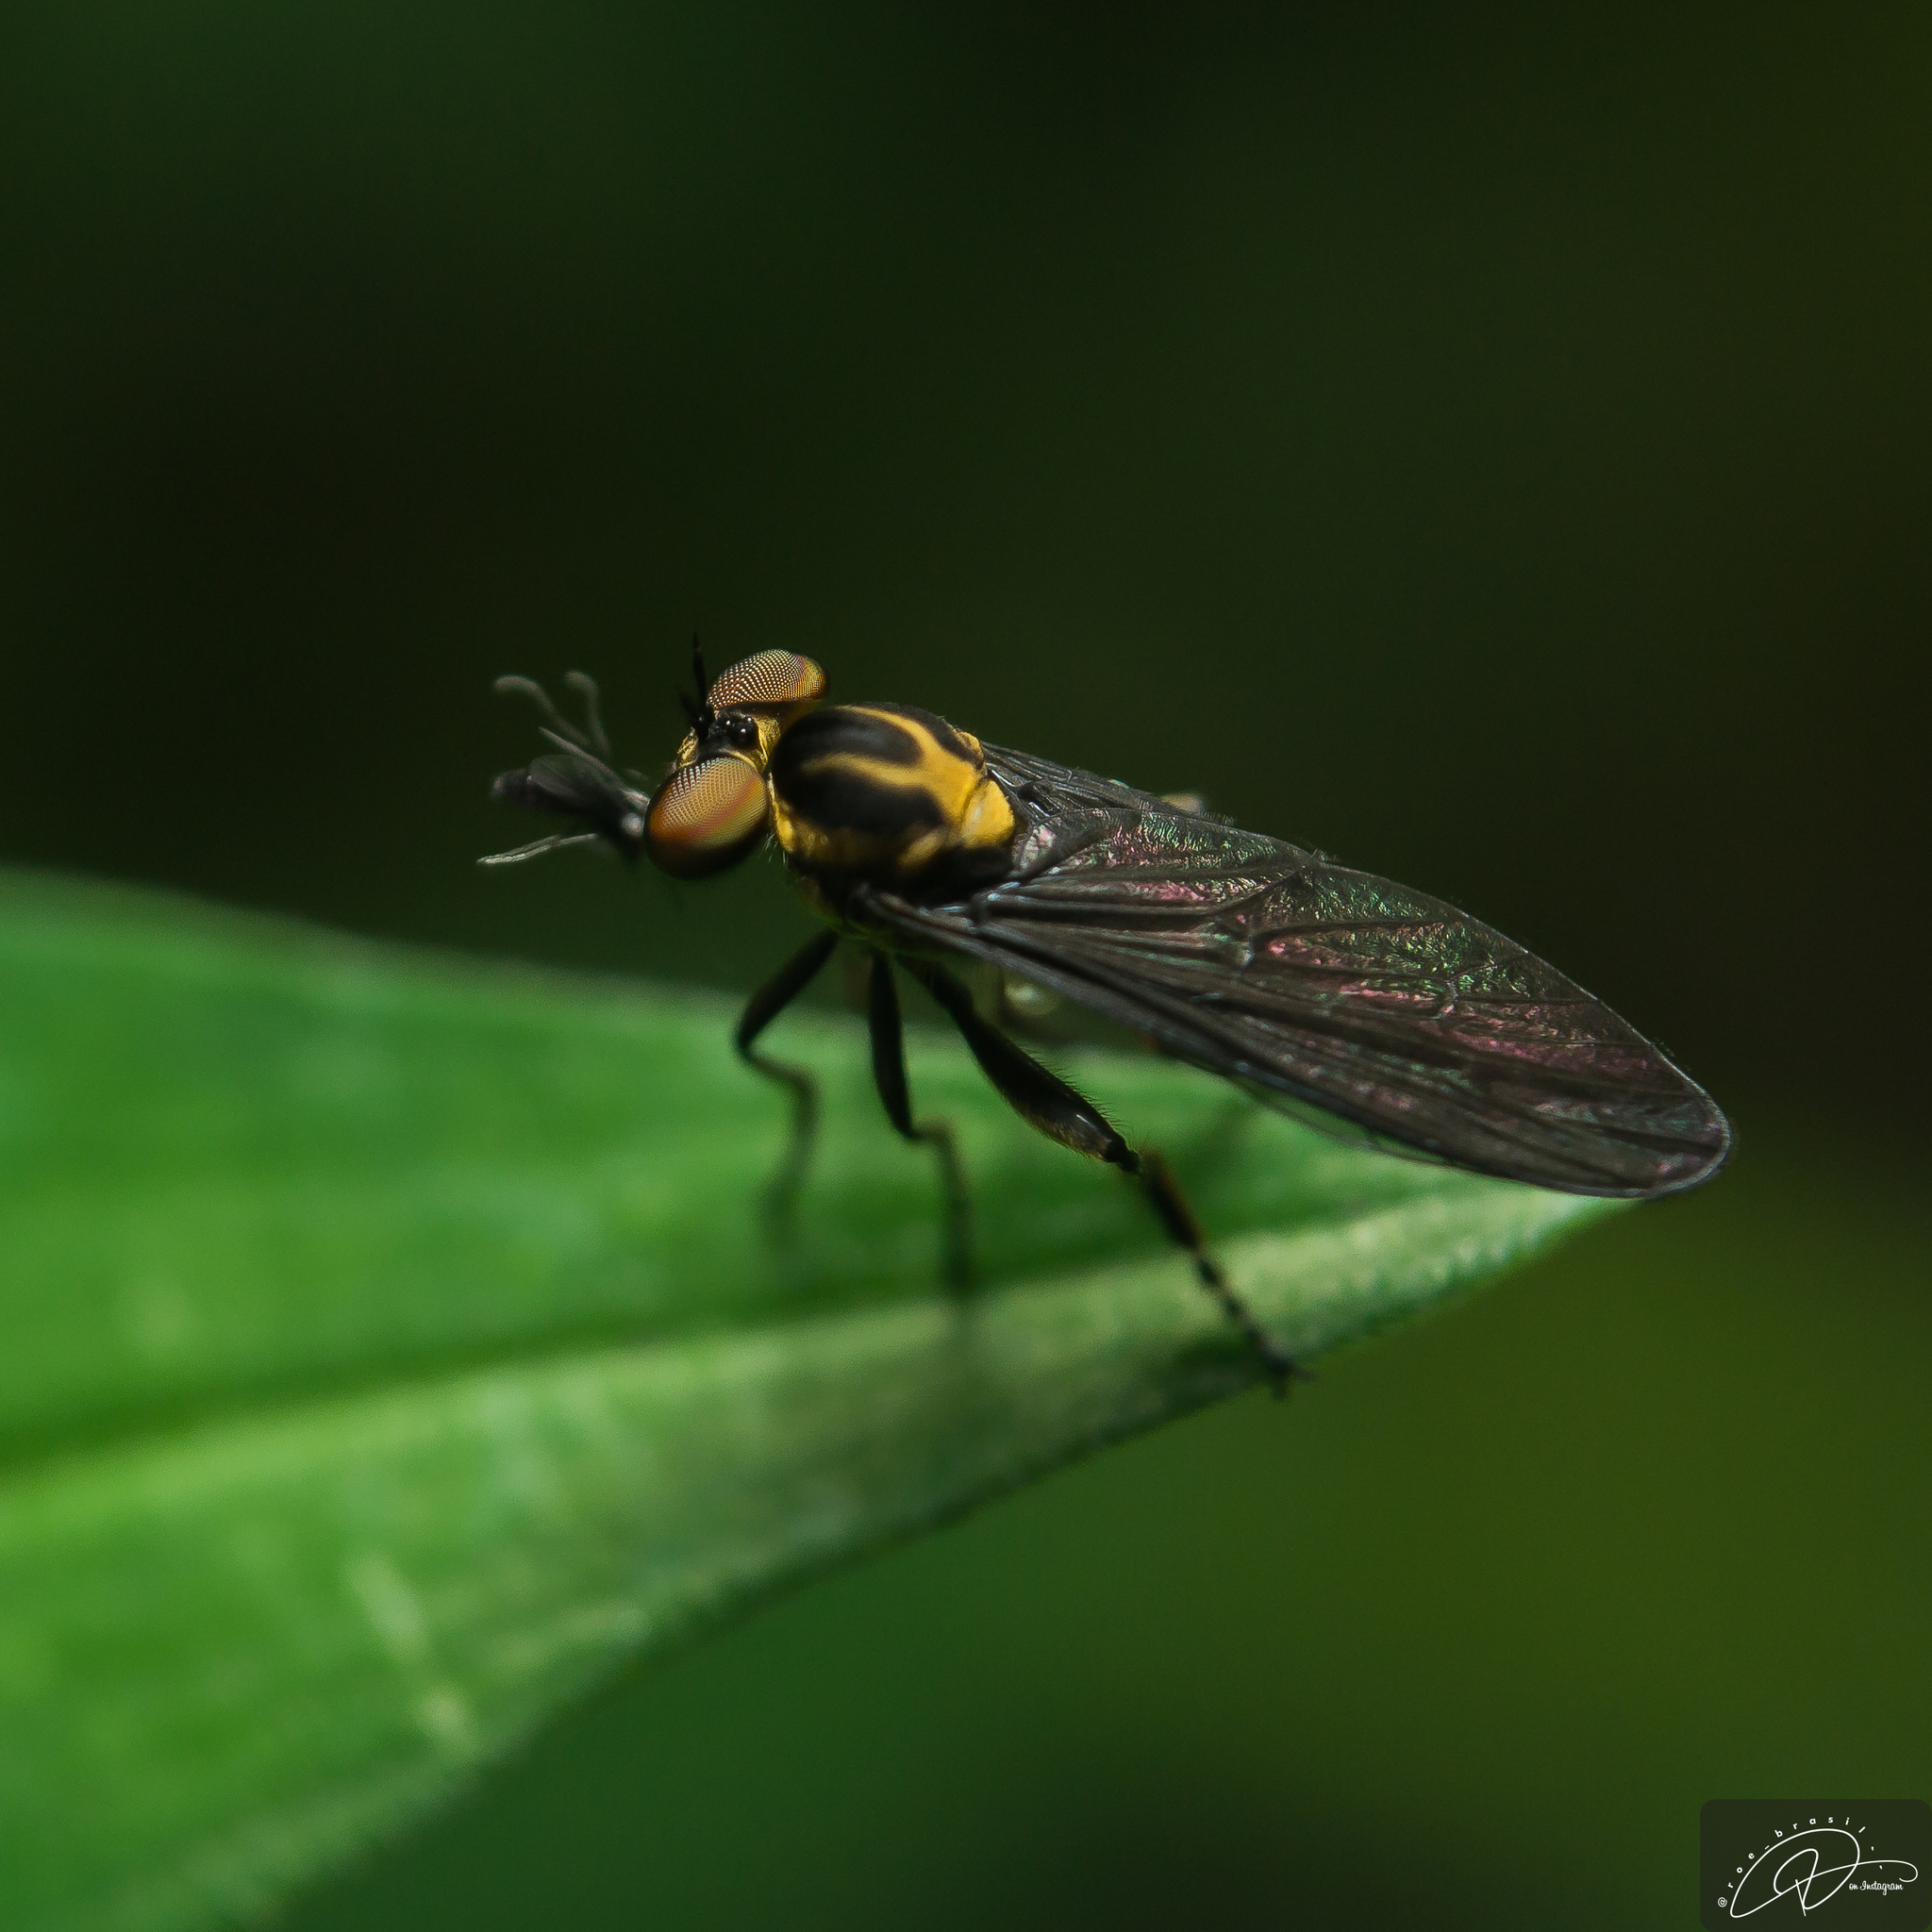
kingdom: Animalia
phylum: Arthropoda
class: Insecta
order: Diptera
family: Asilidae
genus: Holcocephala
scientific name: Holcocephala
